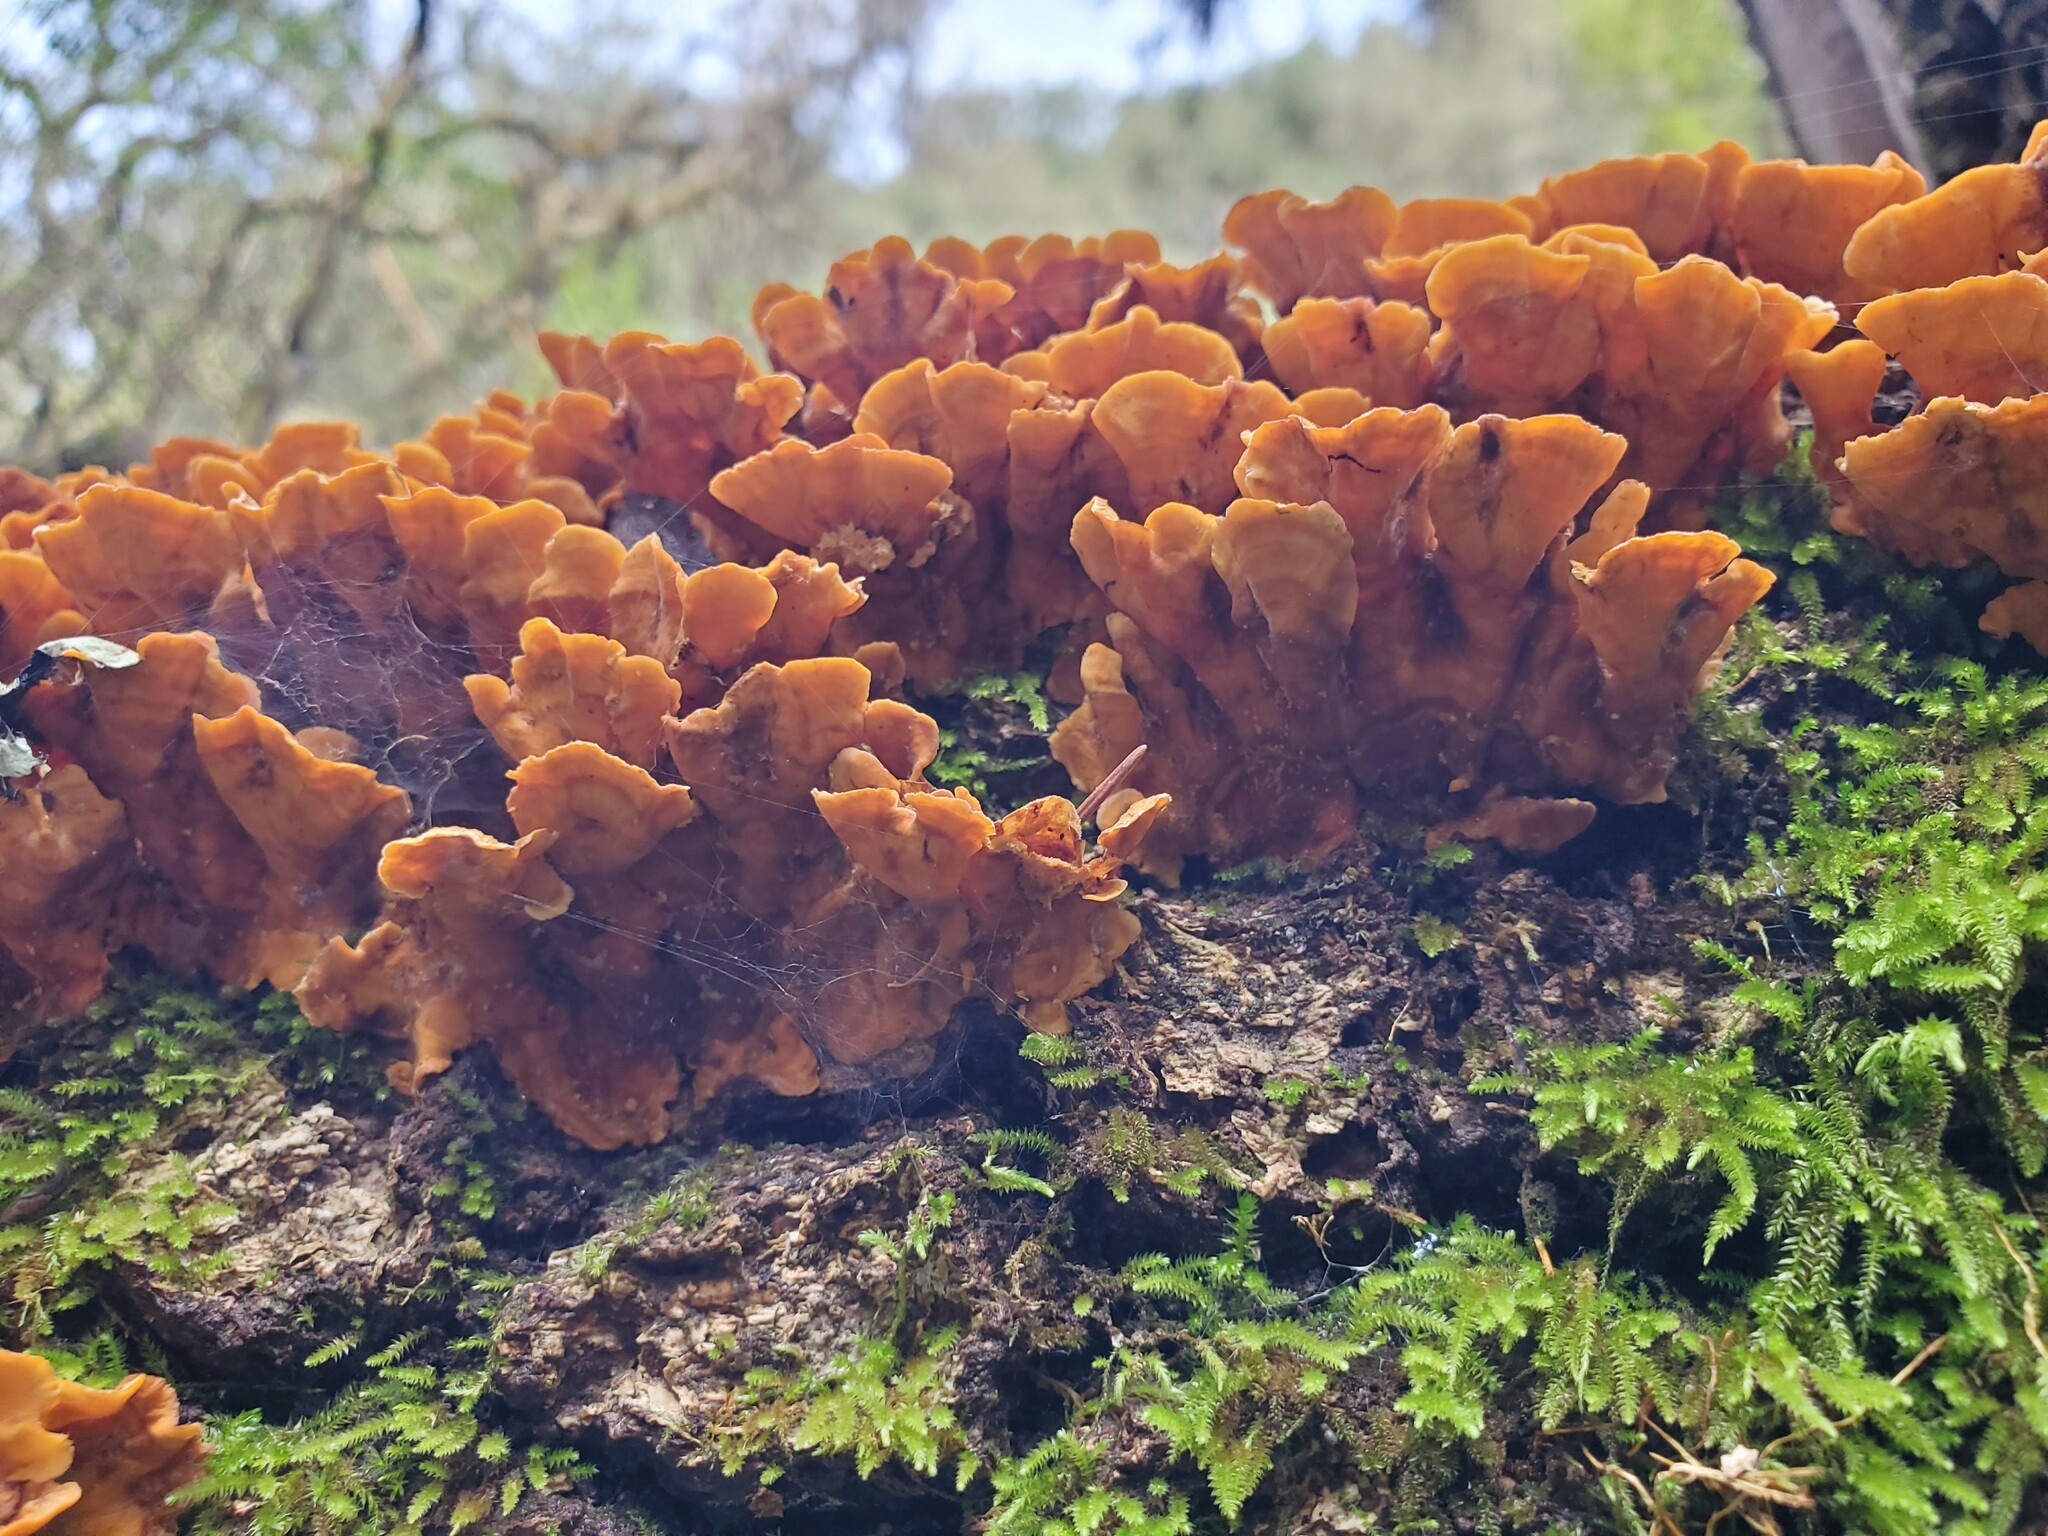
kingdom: Fungi
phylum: Basidiomycota
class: Agaricomycetes
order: Russulales
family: Stereaceae
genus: Stereum
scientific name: Stereum hirsutum
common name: Hairy curtain crust
